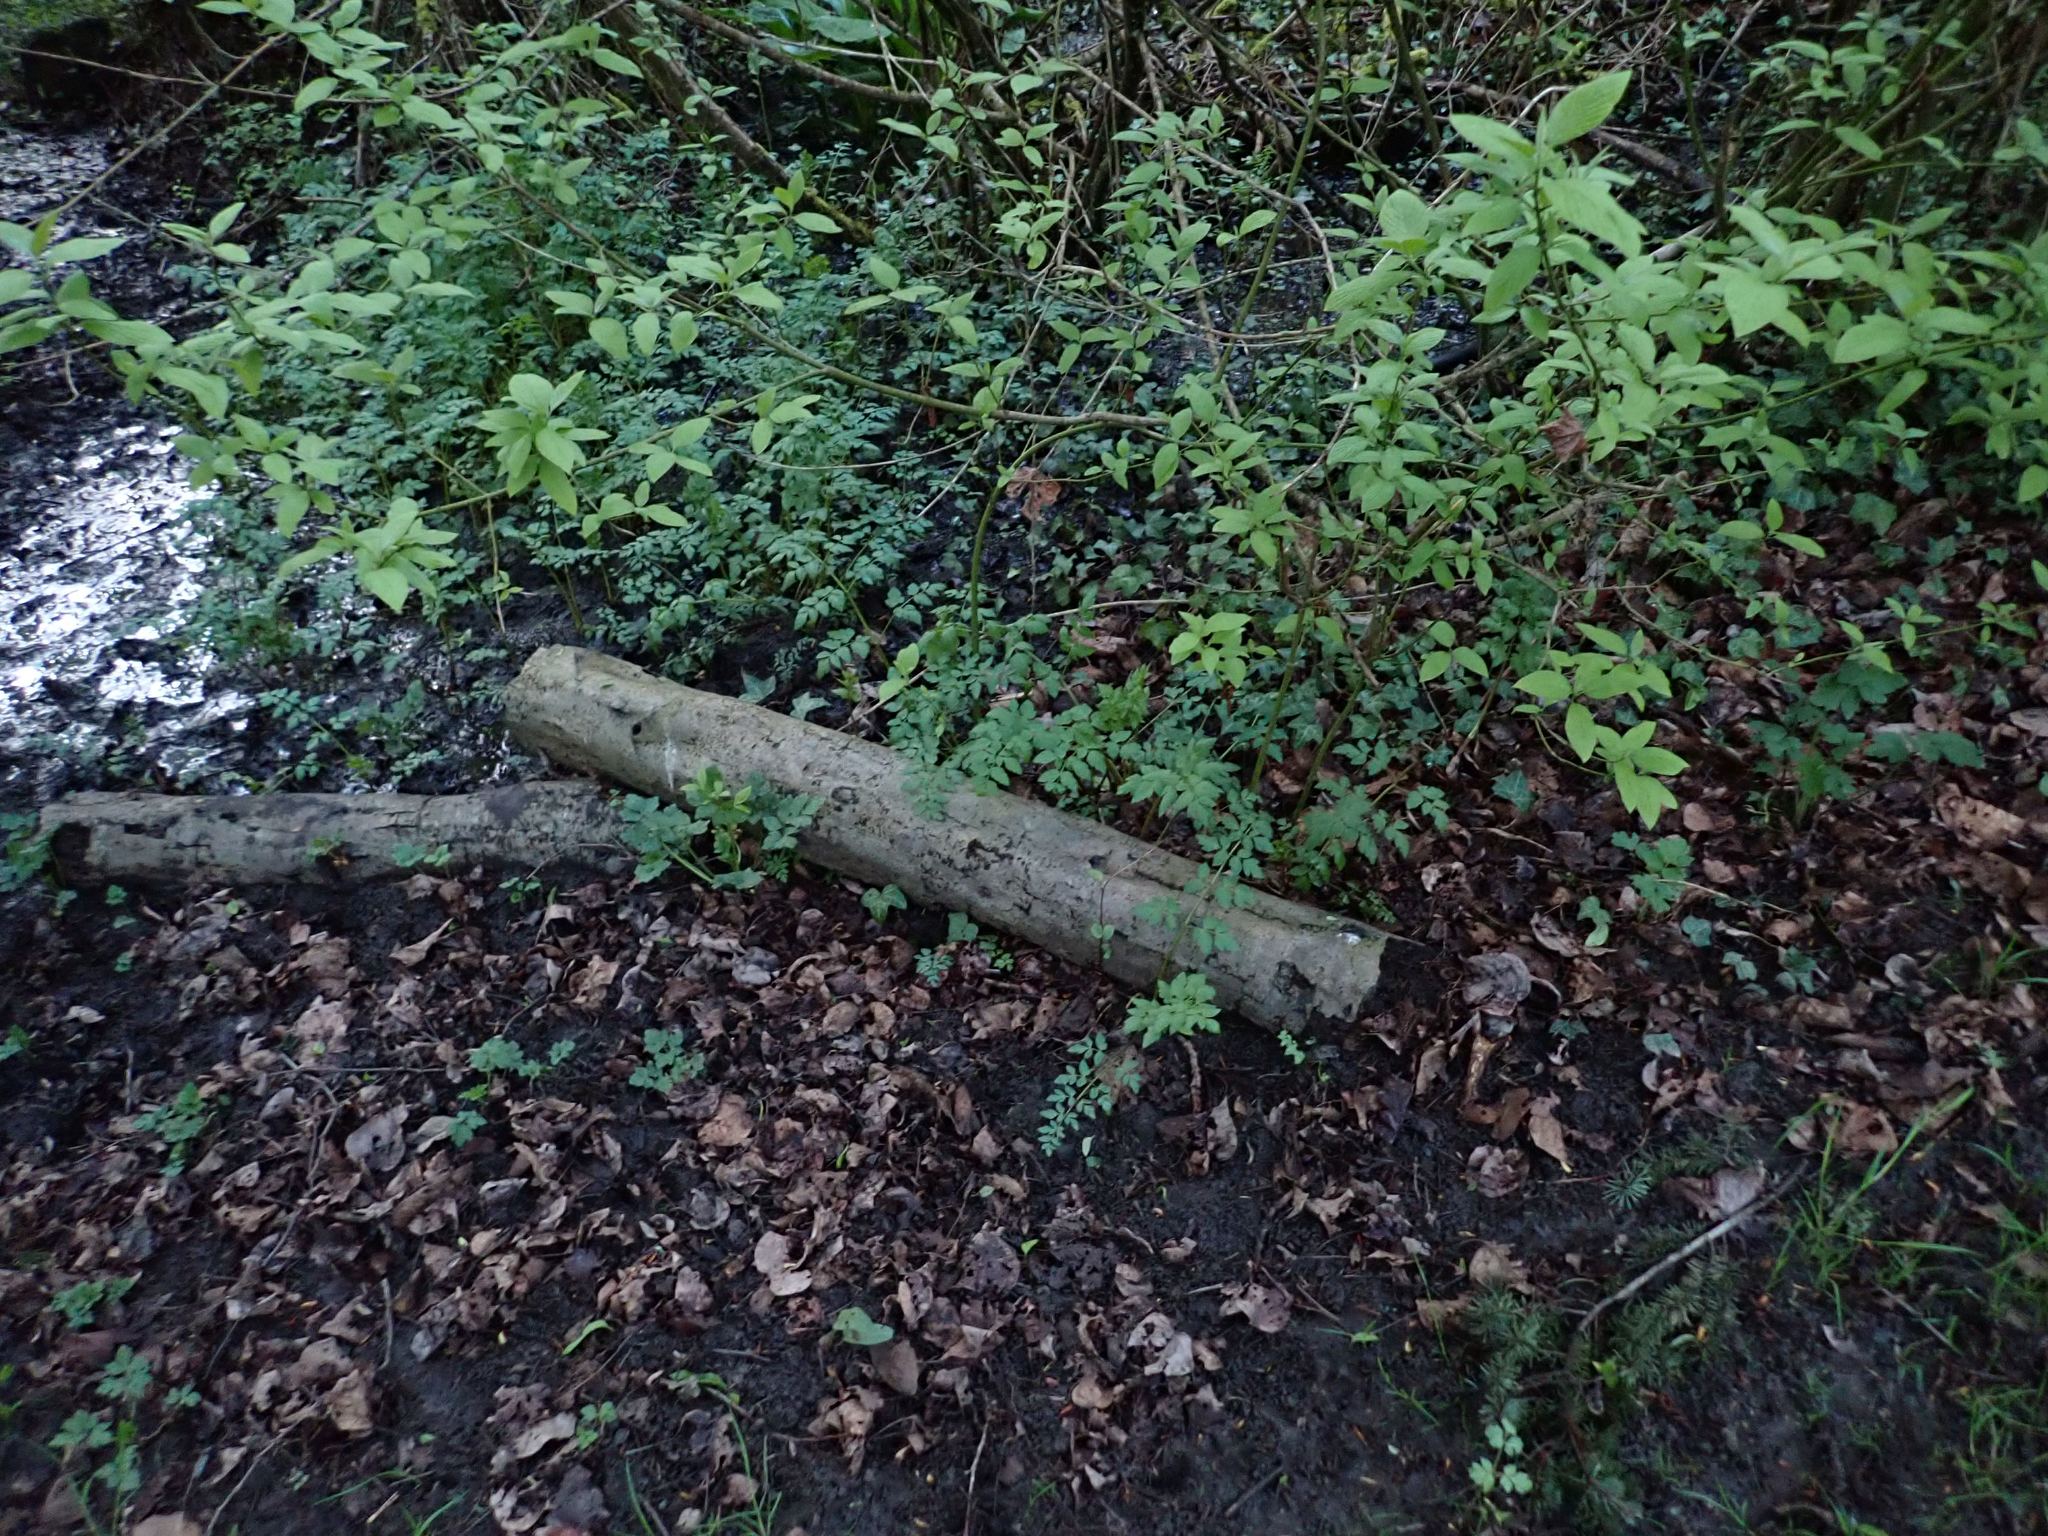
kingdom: Plantae
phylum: Tracheophyta
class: Magnoliopsida
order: Apiales
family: Apiaceae
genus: Oenanthe
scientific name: Oenanthe sarmentosa
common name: American water-parsley
